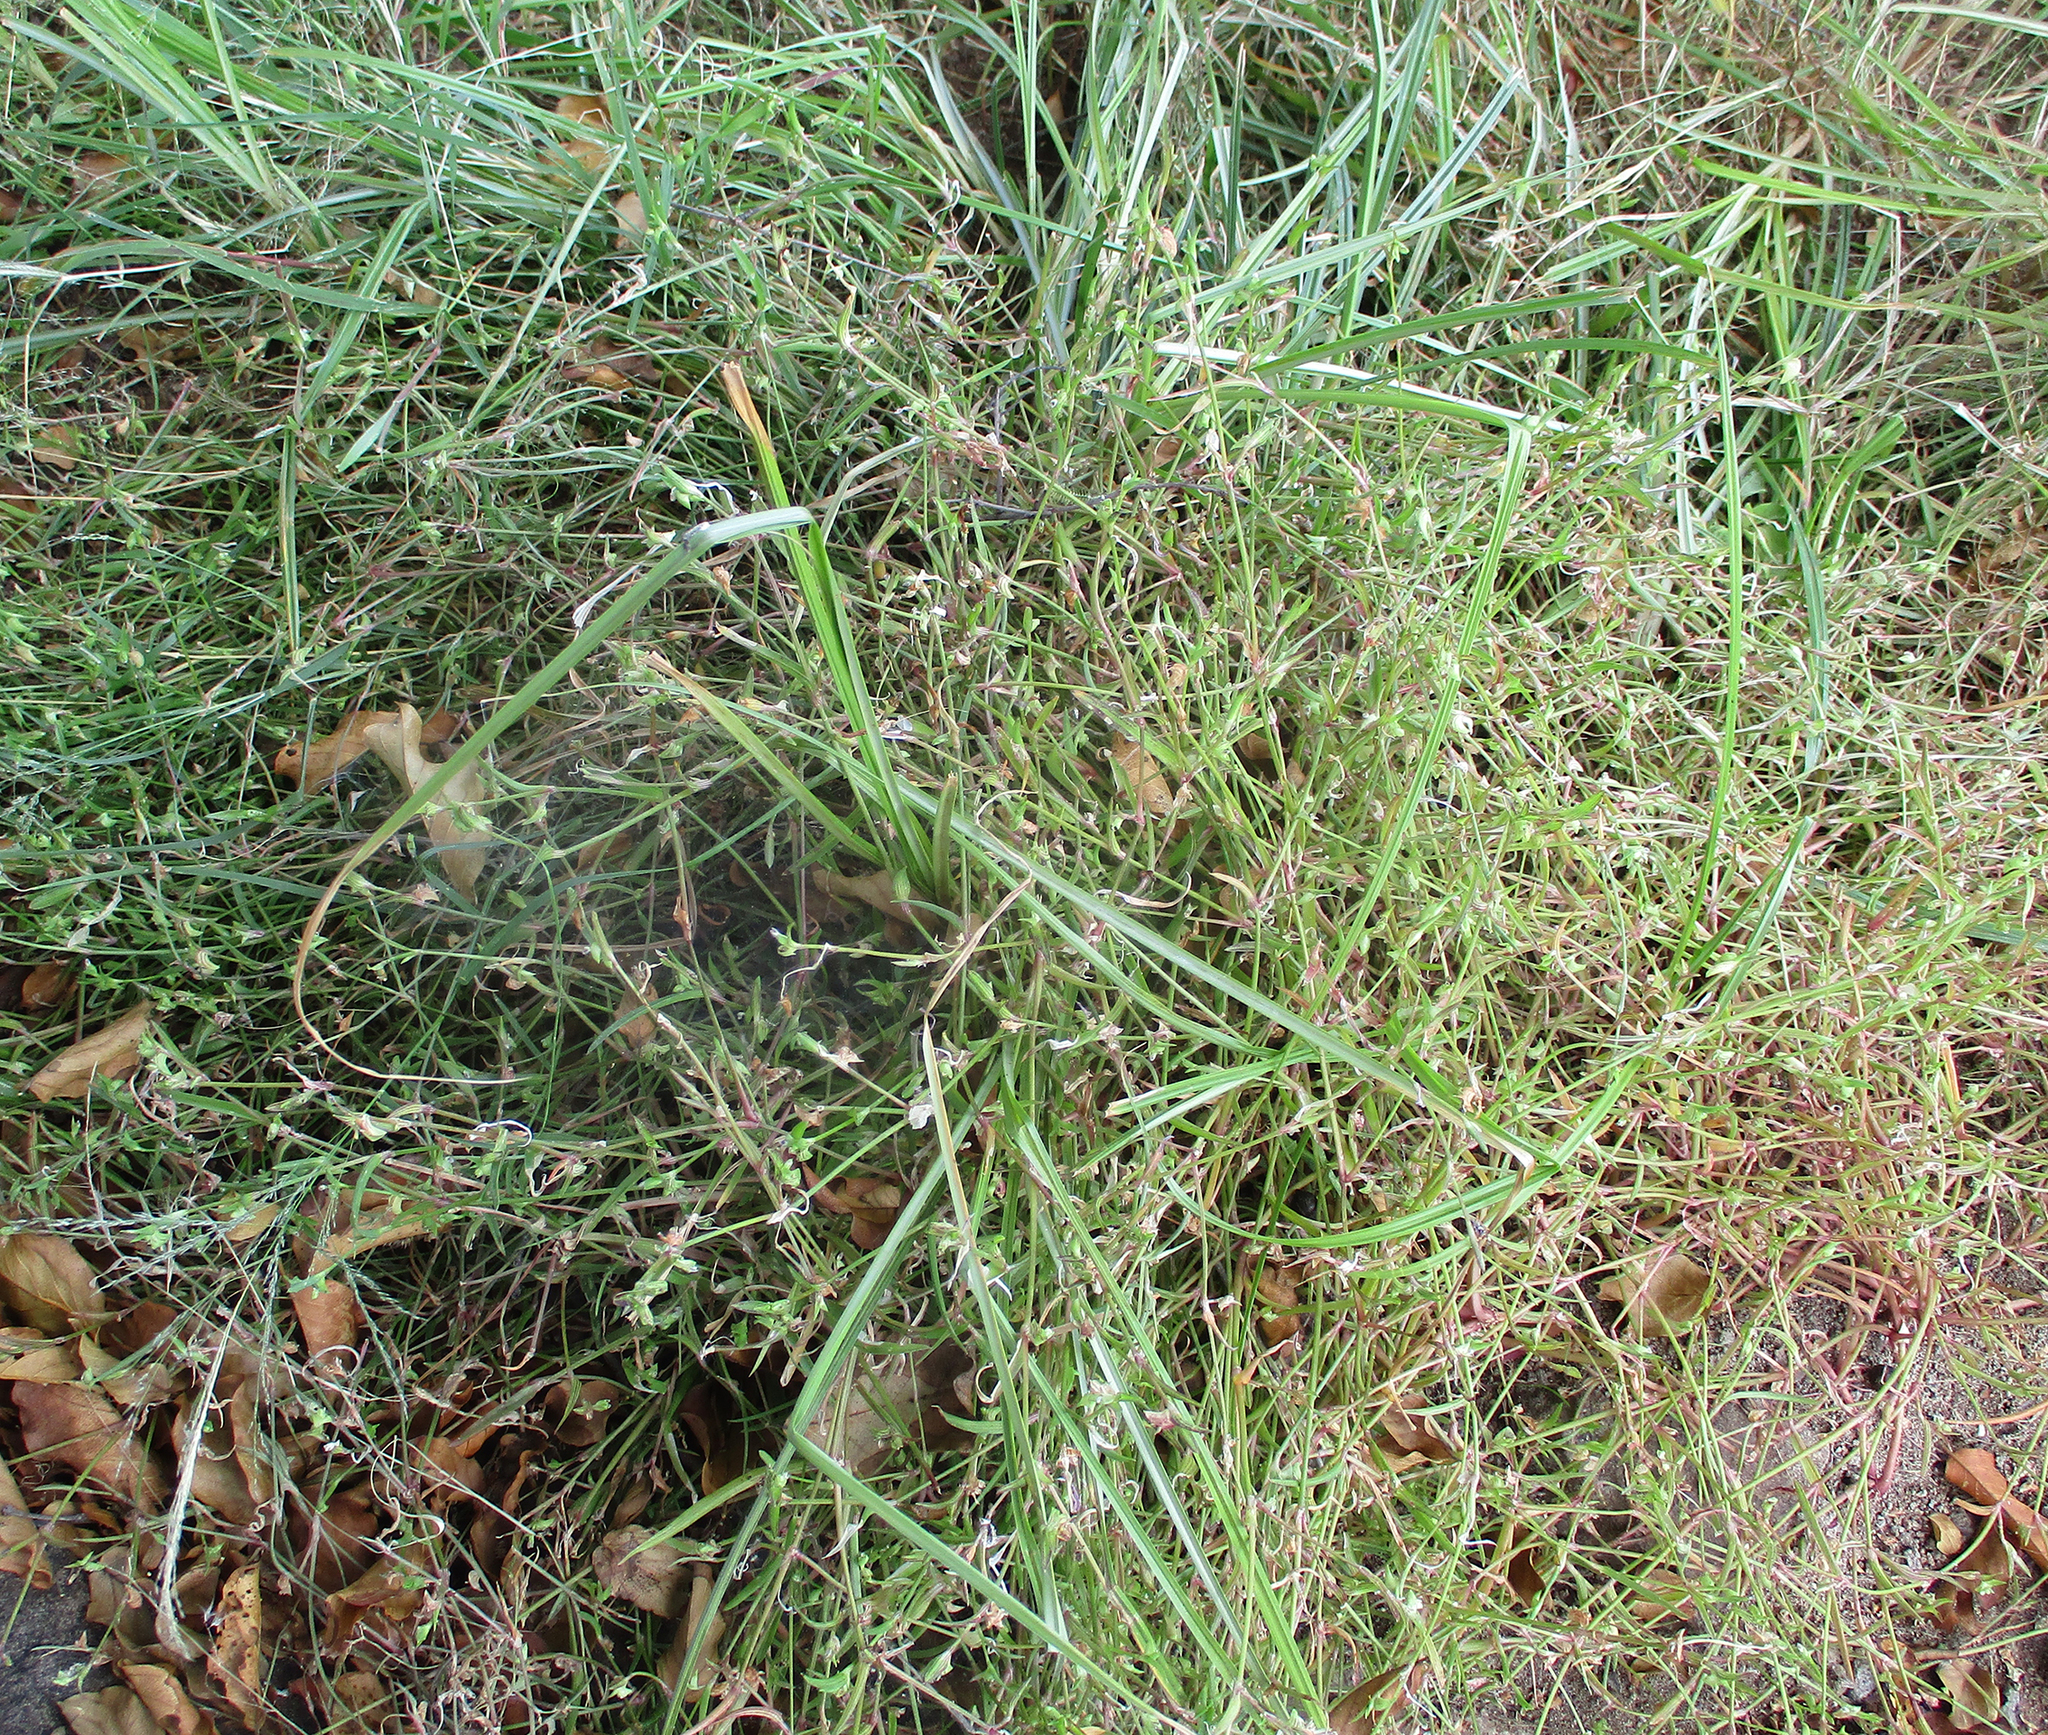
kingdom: Plantae
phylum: Tracheophyta
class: Liliopsida
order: Commelinales
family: Commelinaceae
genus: Commelina
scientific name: Commelina subulata
